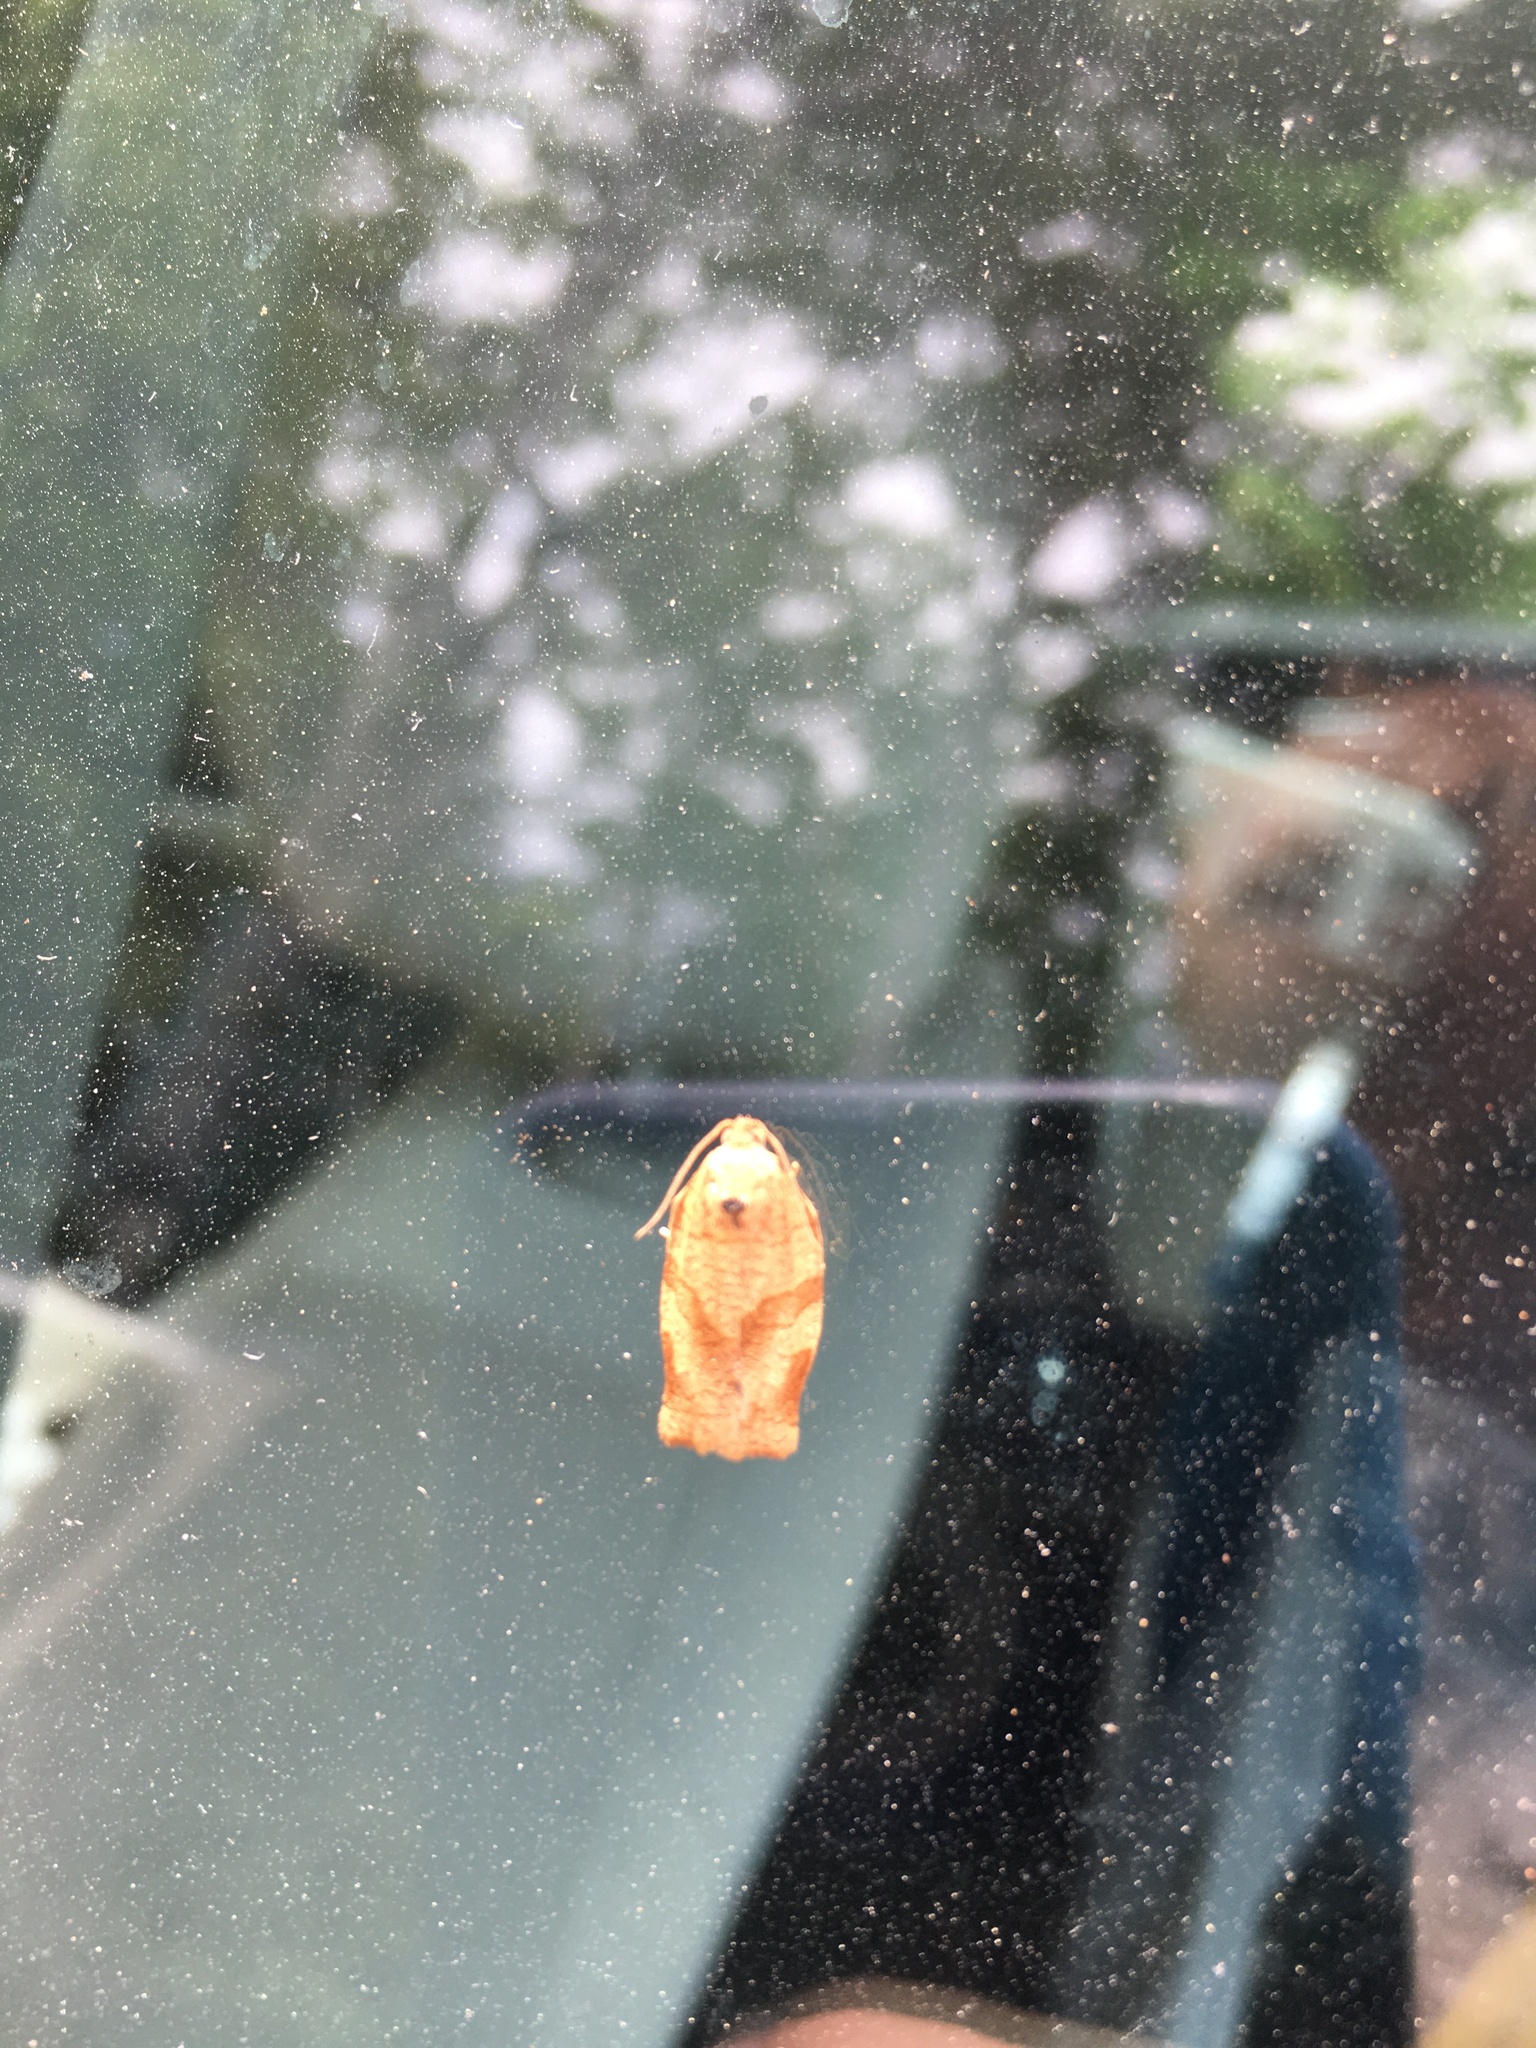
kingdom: Animalia
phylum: Arthropoda
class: Insecta
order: Lepidoptera
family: Tortricidae
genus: Choristoneura
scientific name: Choristoneura rosaceana
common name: Oblique-banded leafroller moth
